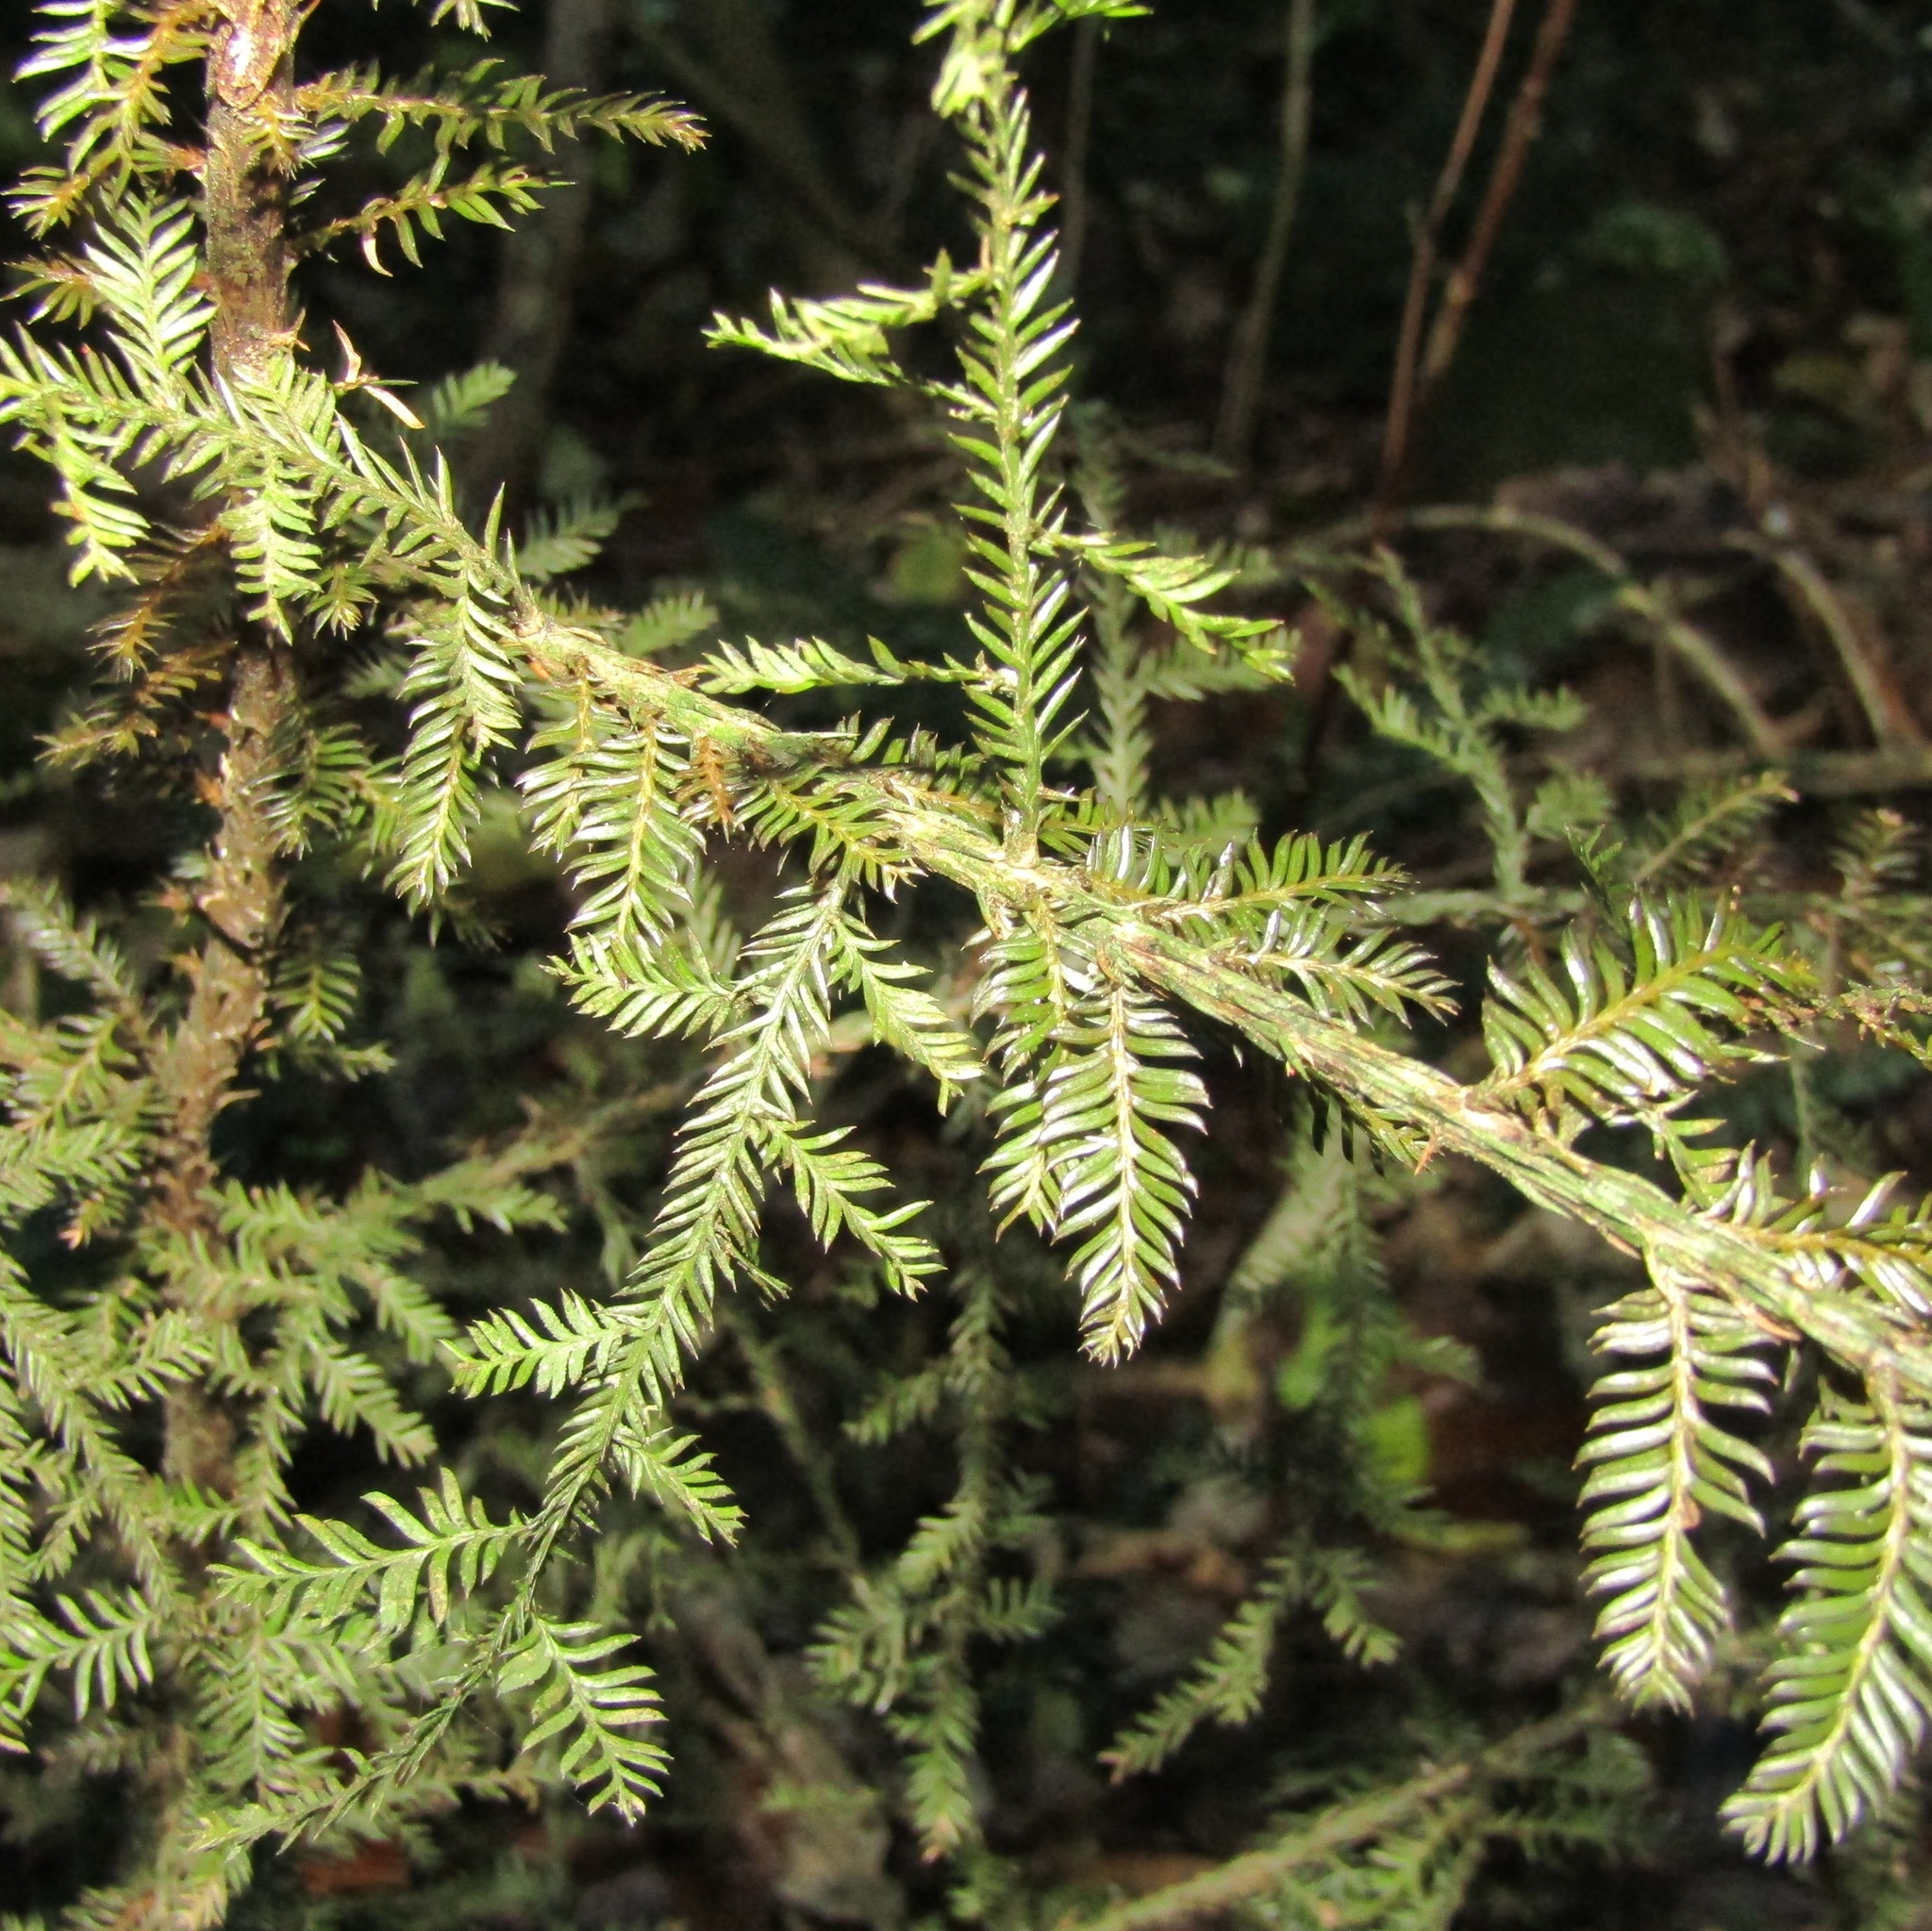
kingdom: Plantae
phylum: Tracheophyta
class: Pinopsida
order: Pinales
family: Podocarpaceae
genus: Dacrycarpus
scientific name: Dacrycarpus dacrydioides
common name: White pine
